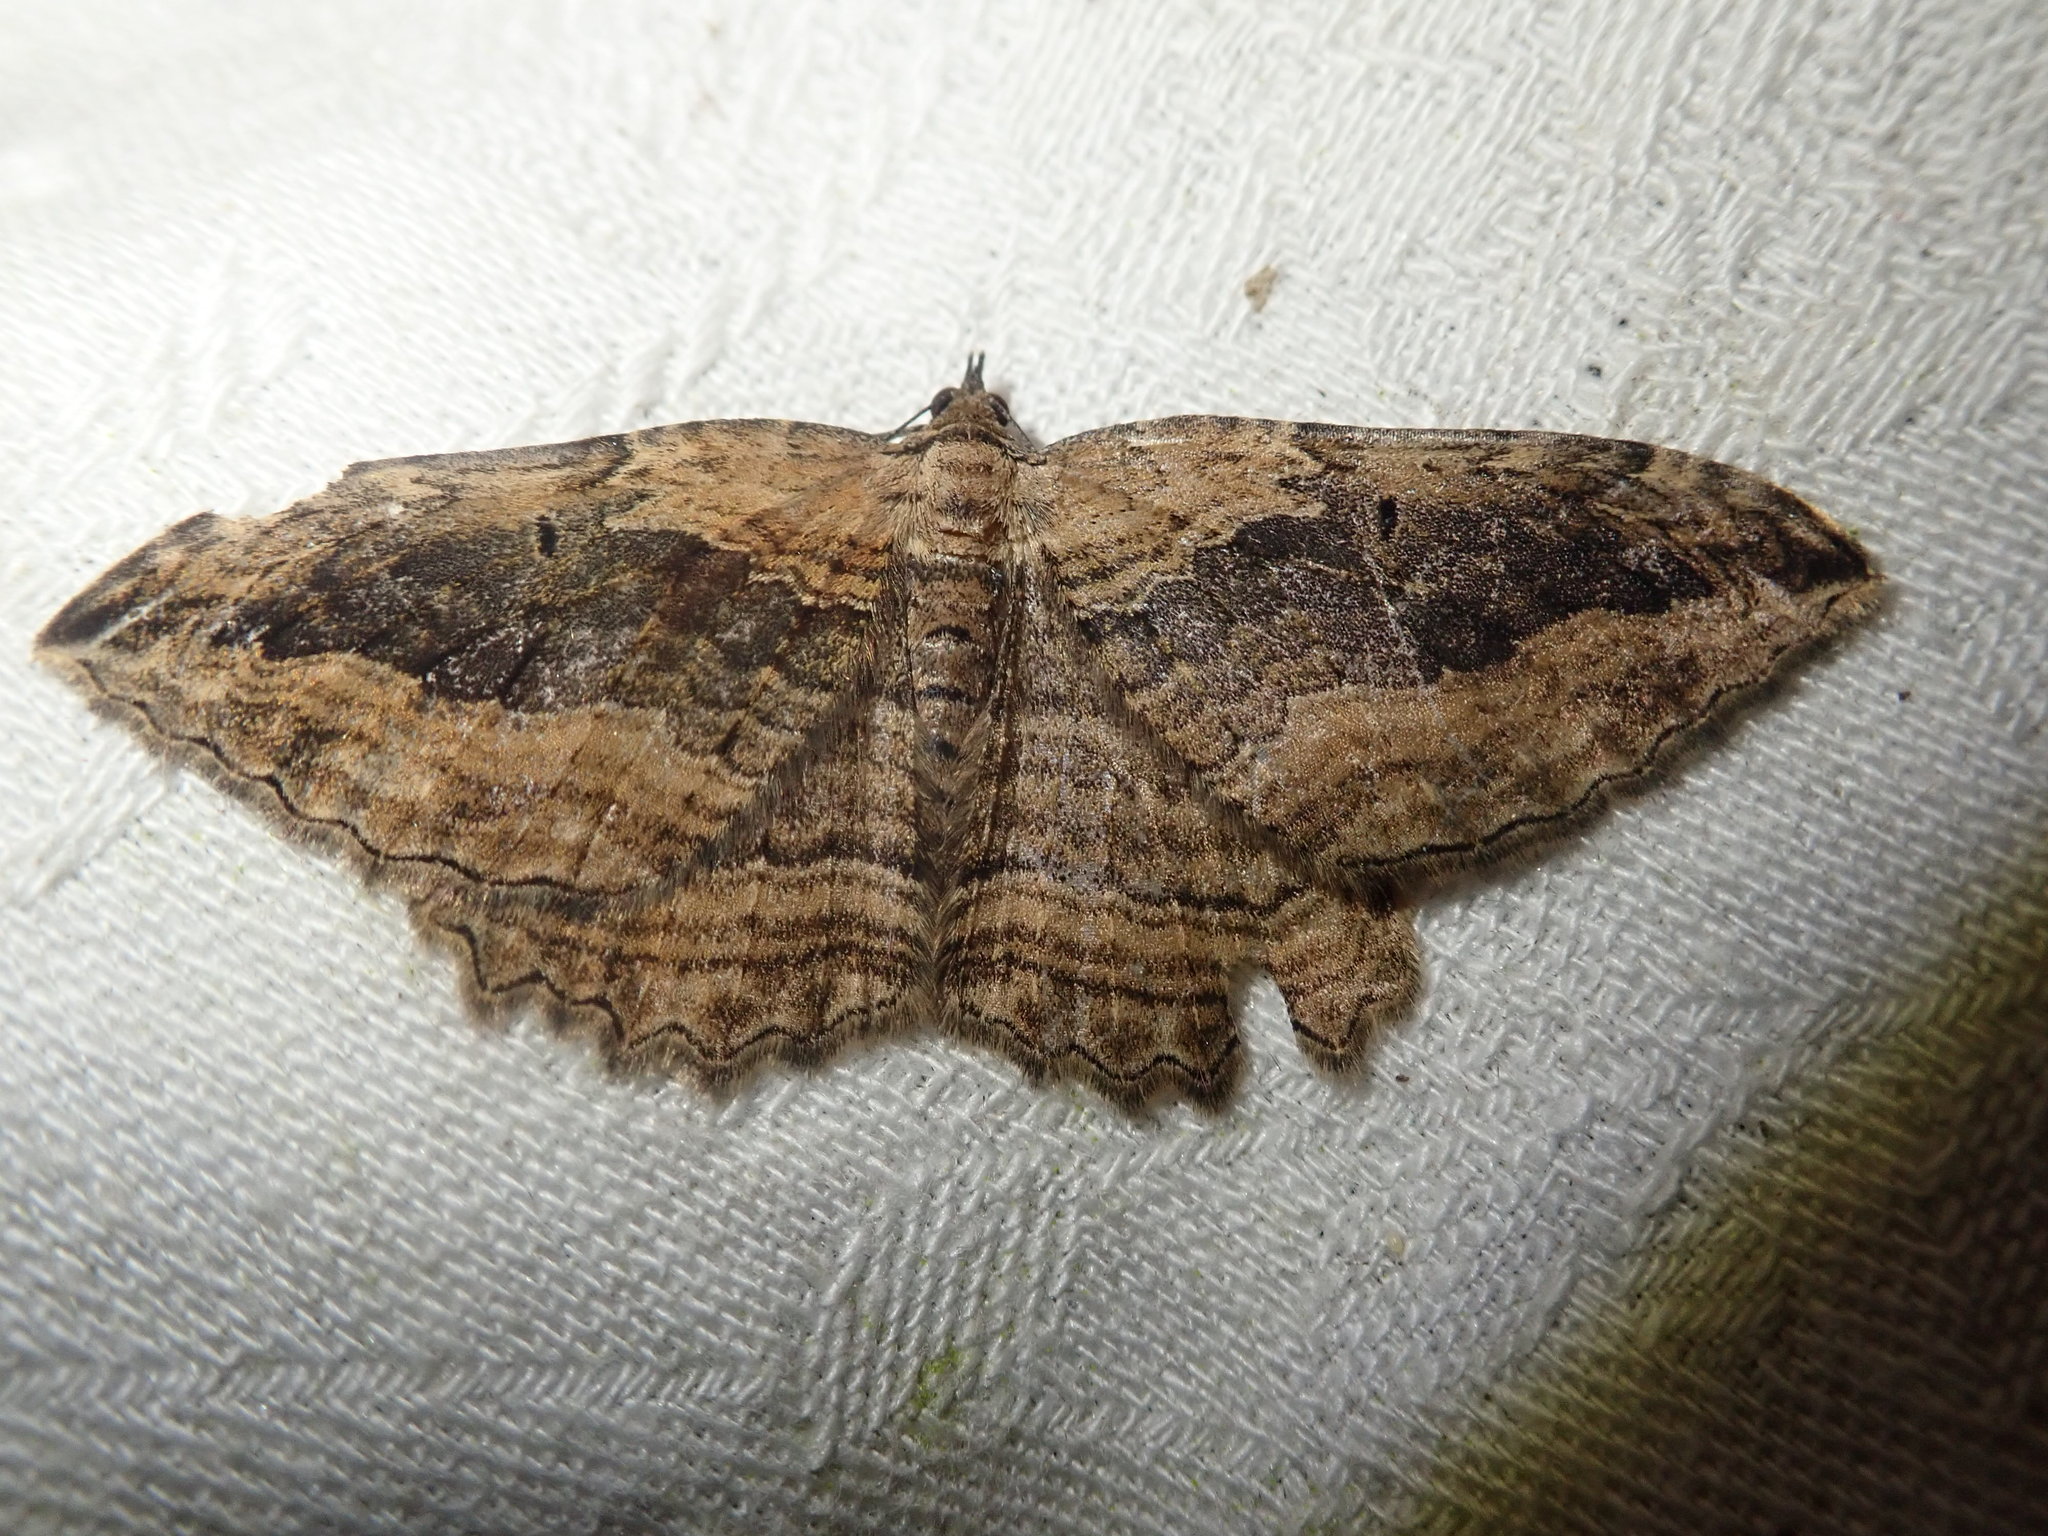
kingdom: Animalia
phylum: Arthropoda
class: Insecta
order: Lepidoptera
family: Geometridae
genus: Philereme
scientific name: Philereme transversata
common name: Dark umber
